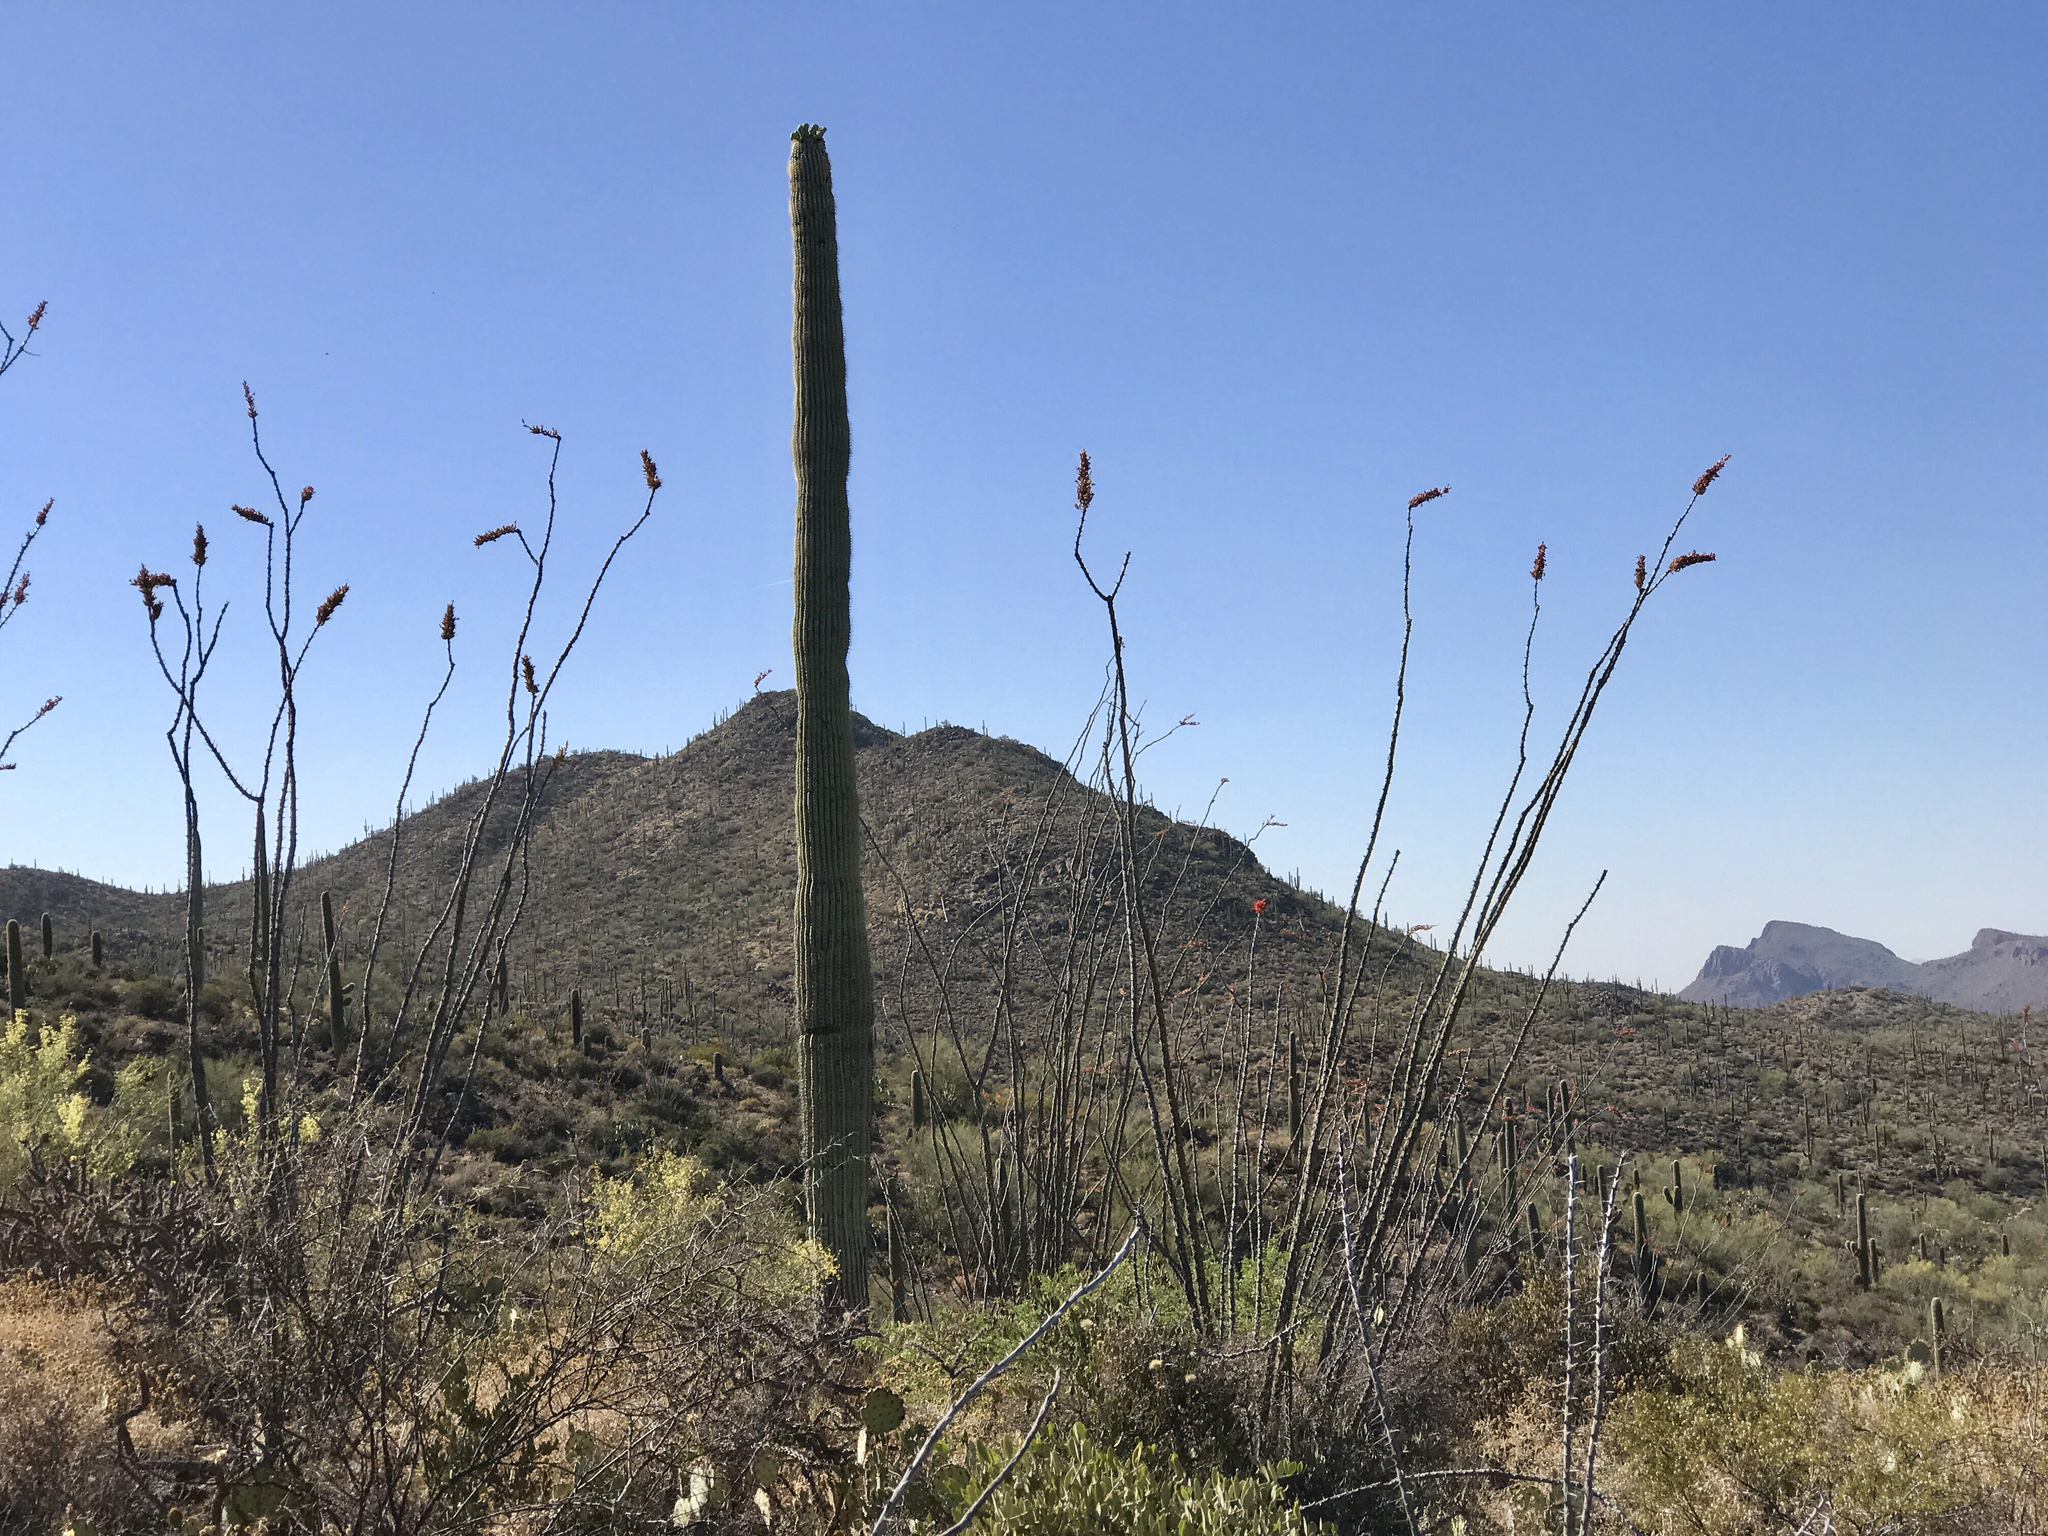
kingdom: Plantae
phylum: Tracheophyta
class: Magnoliopsida
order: Caryophyllales
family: Cactaceae
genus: Carnegiea
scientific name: Carnegiea gigantea
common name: Saguaro
